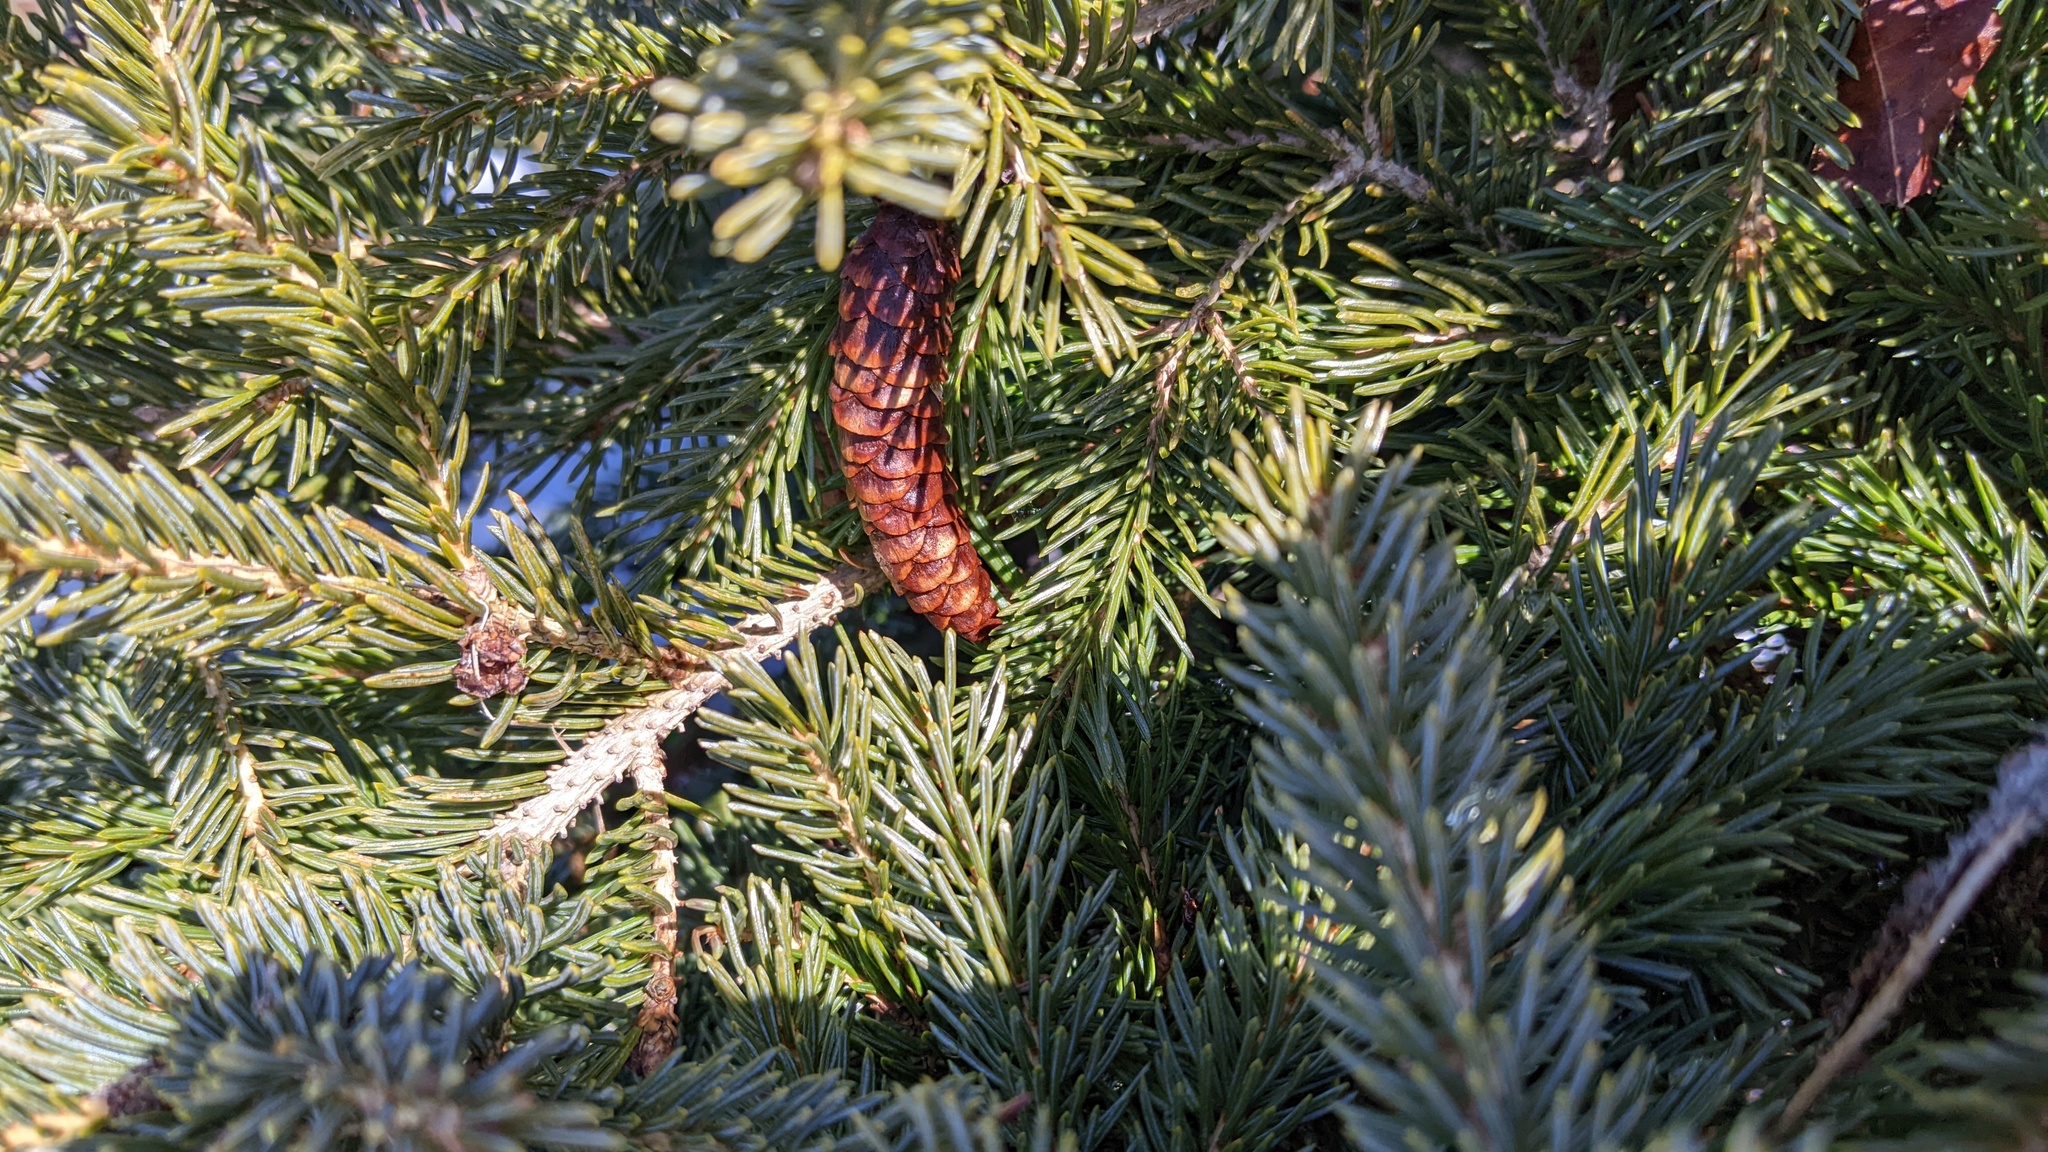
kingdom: Plantae
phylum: Tracheophyta
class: Pinopsida
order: Pinales
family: Pinaceae
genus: Picea
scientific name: Picea glauca
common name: White spruce
